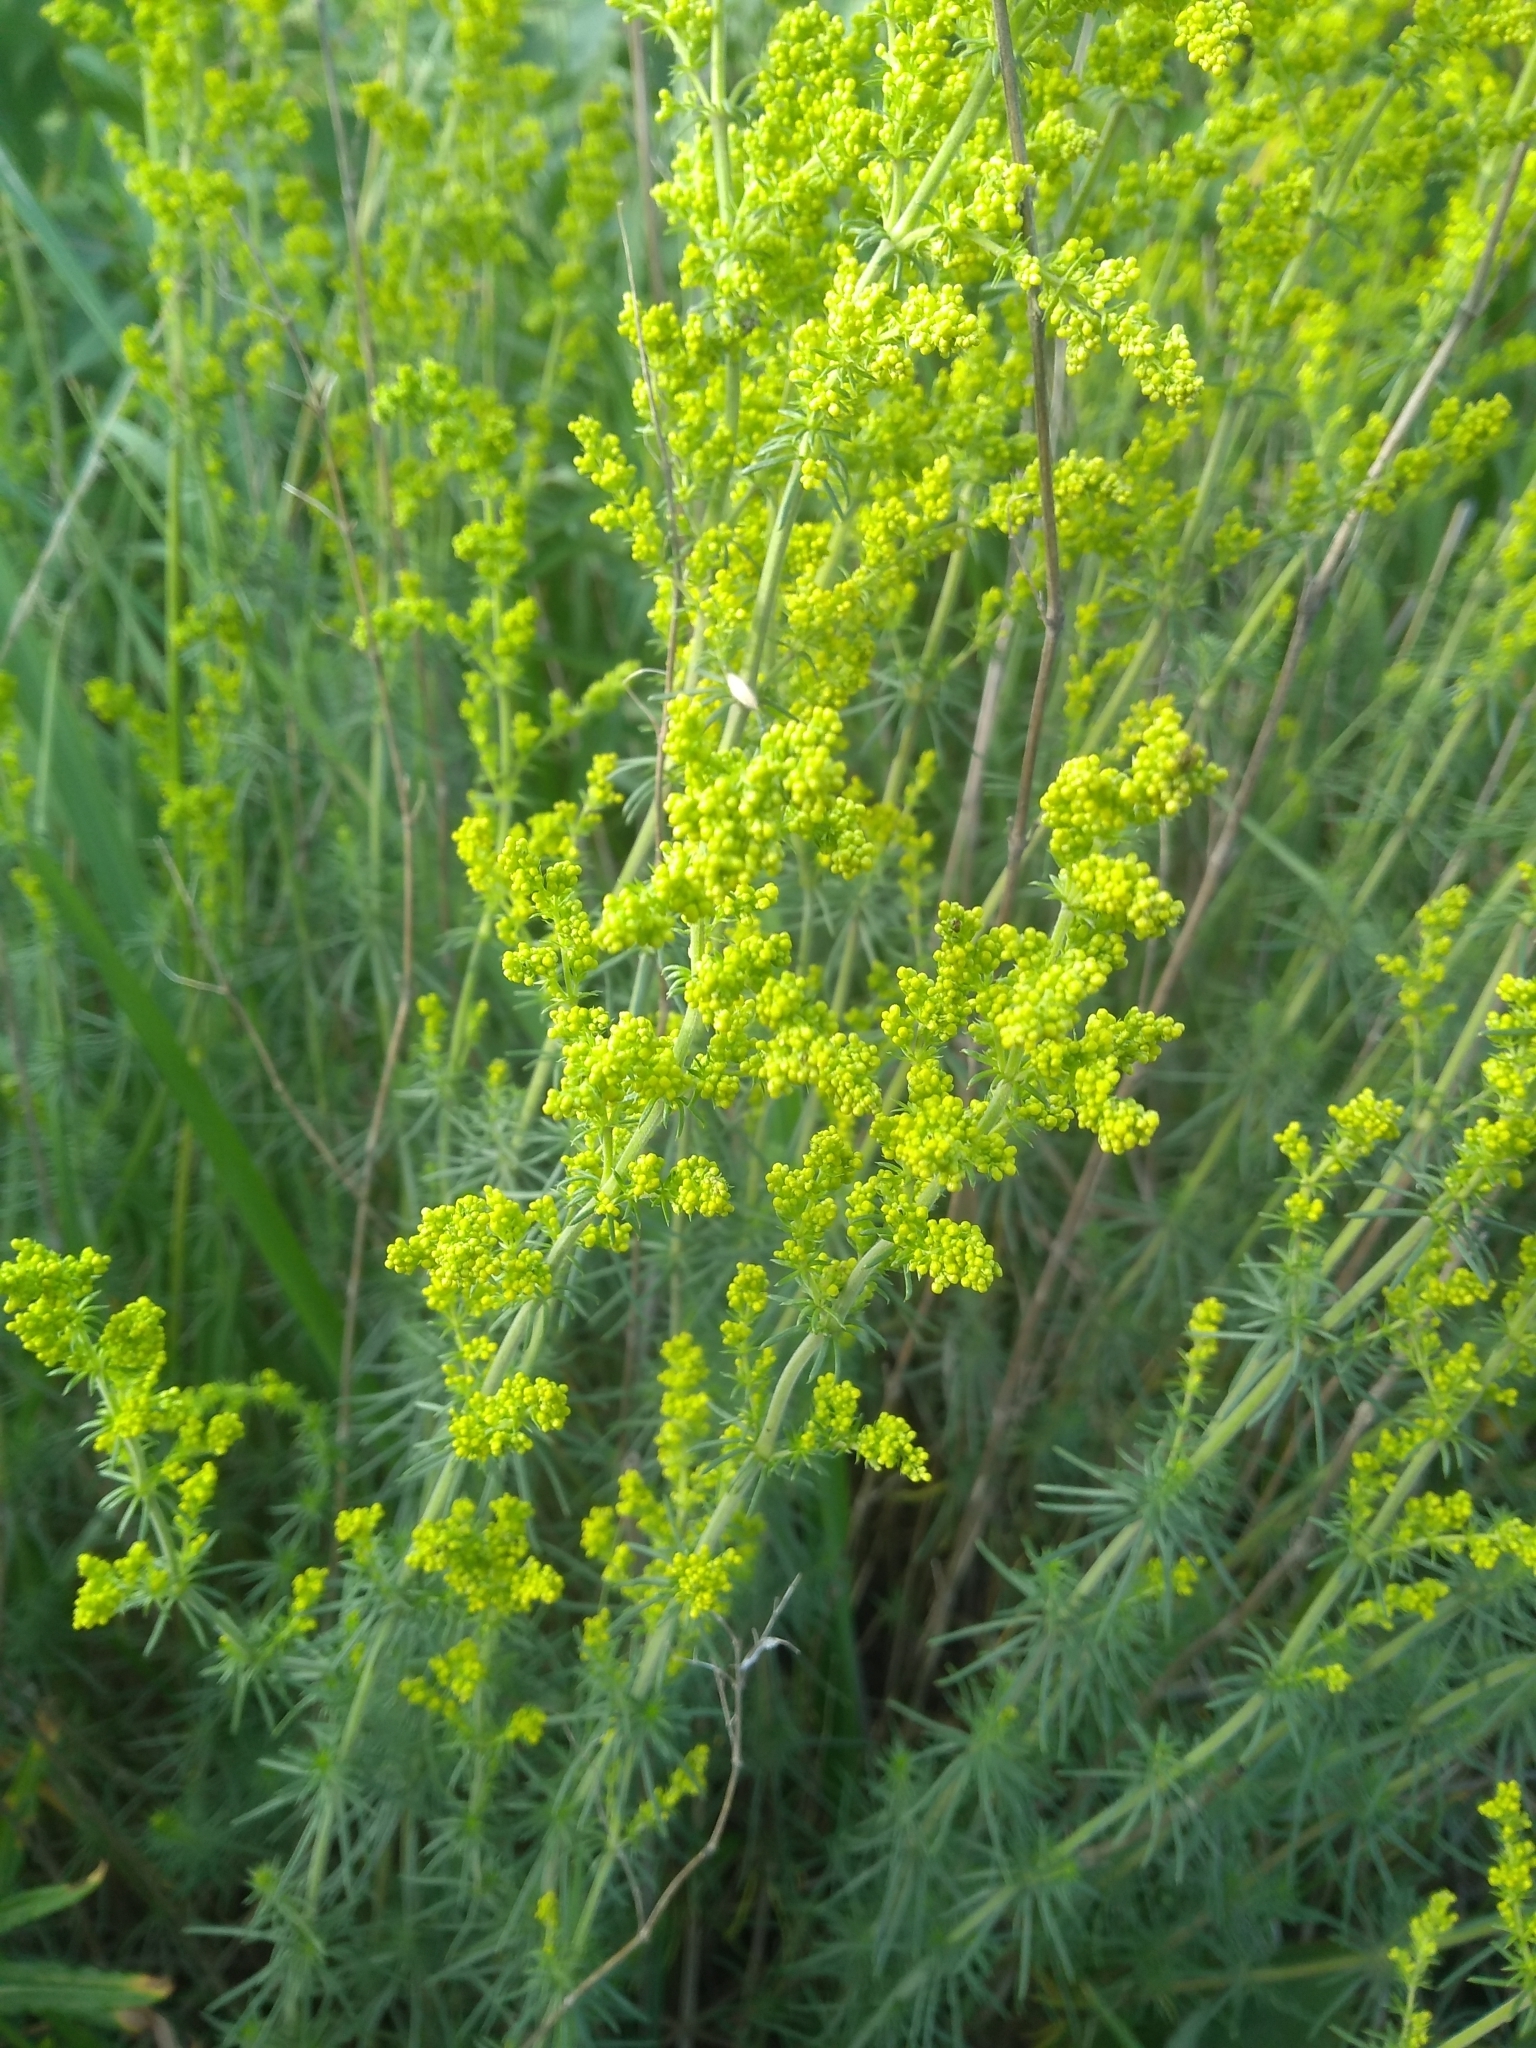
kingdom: Plantae
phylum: Tracheophyta
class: Magnoliopsida
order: Gentianales
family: Rubiaceae
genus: Galium
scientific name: Galium verum
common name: Lady's bedstraw
